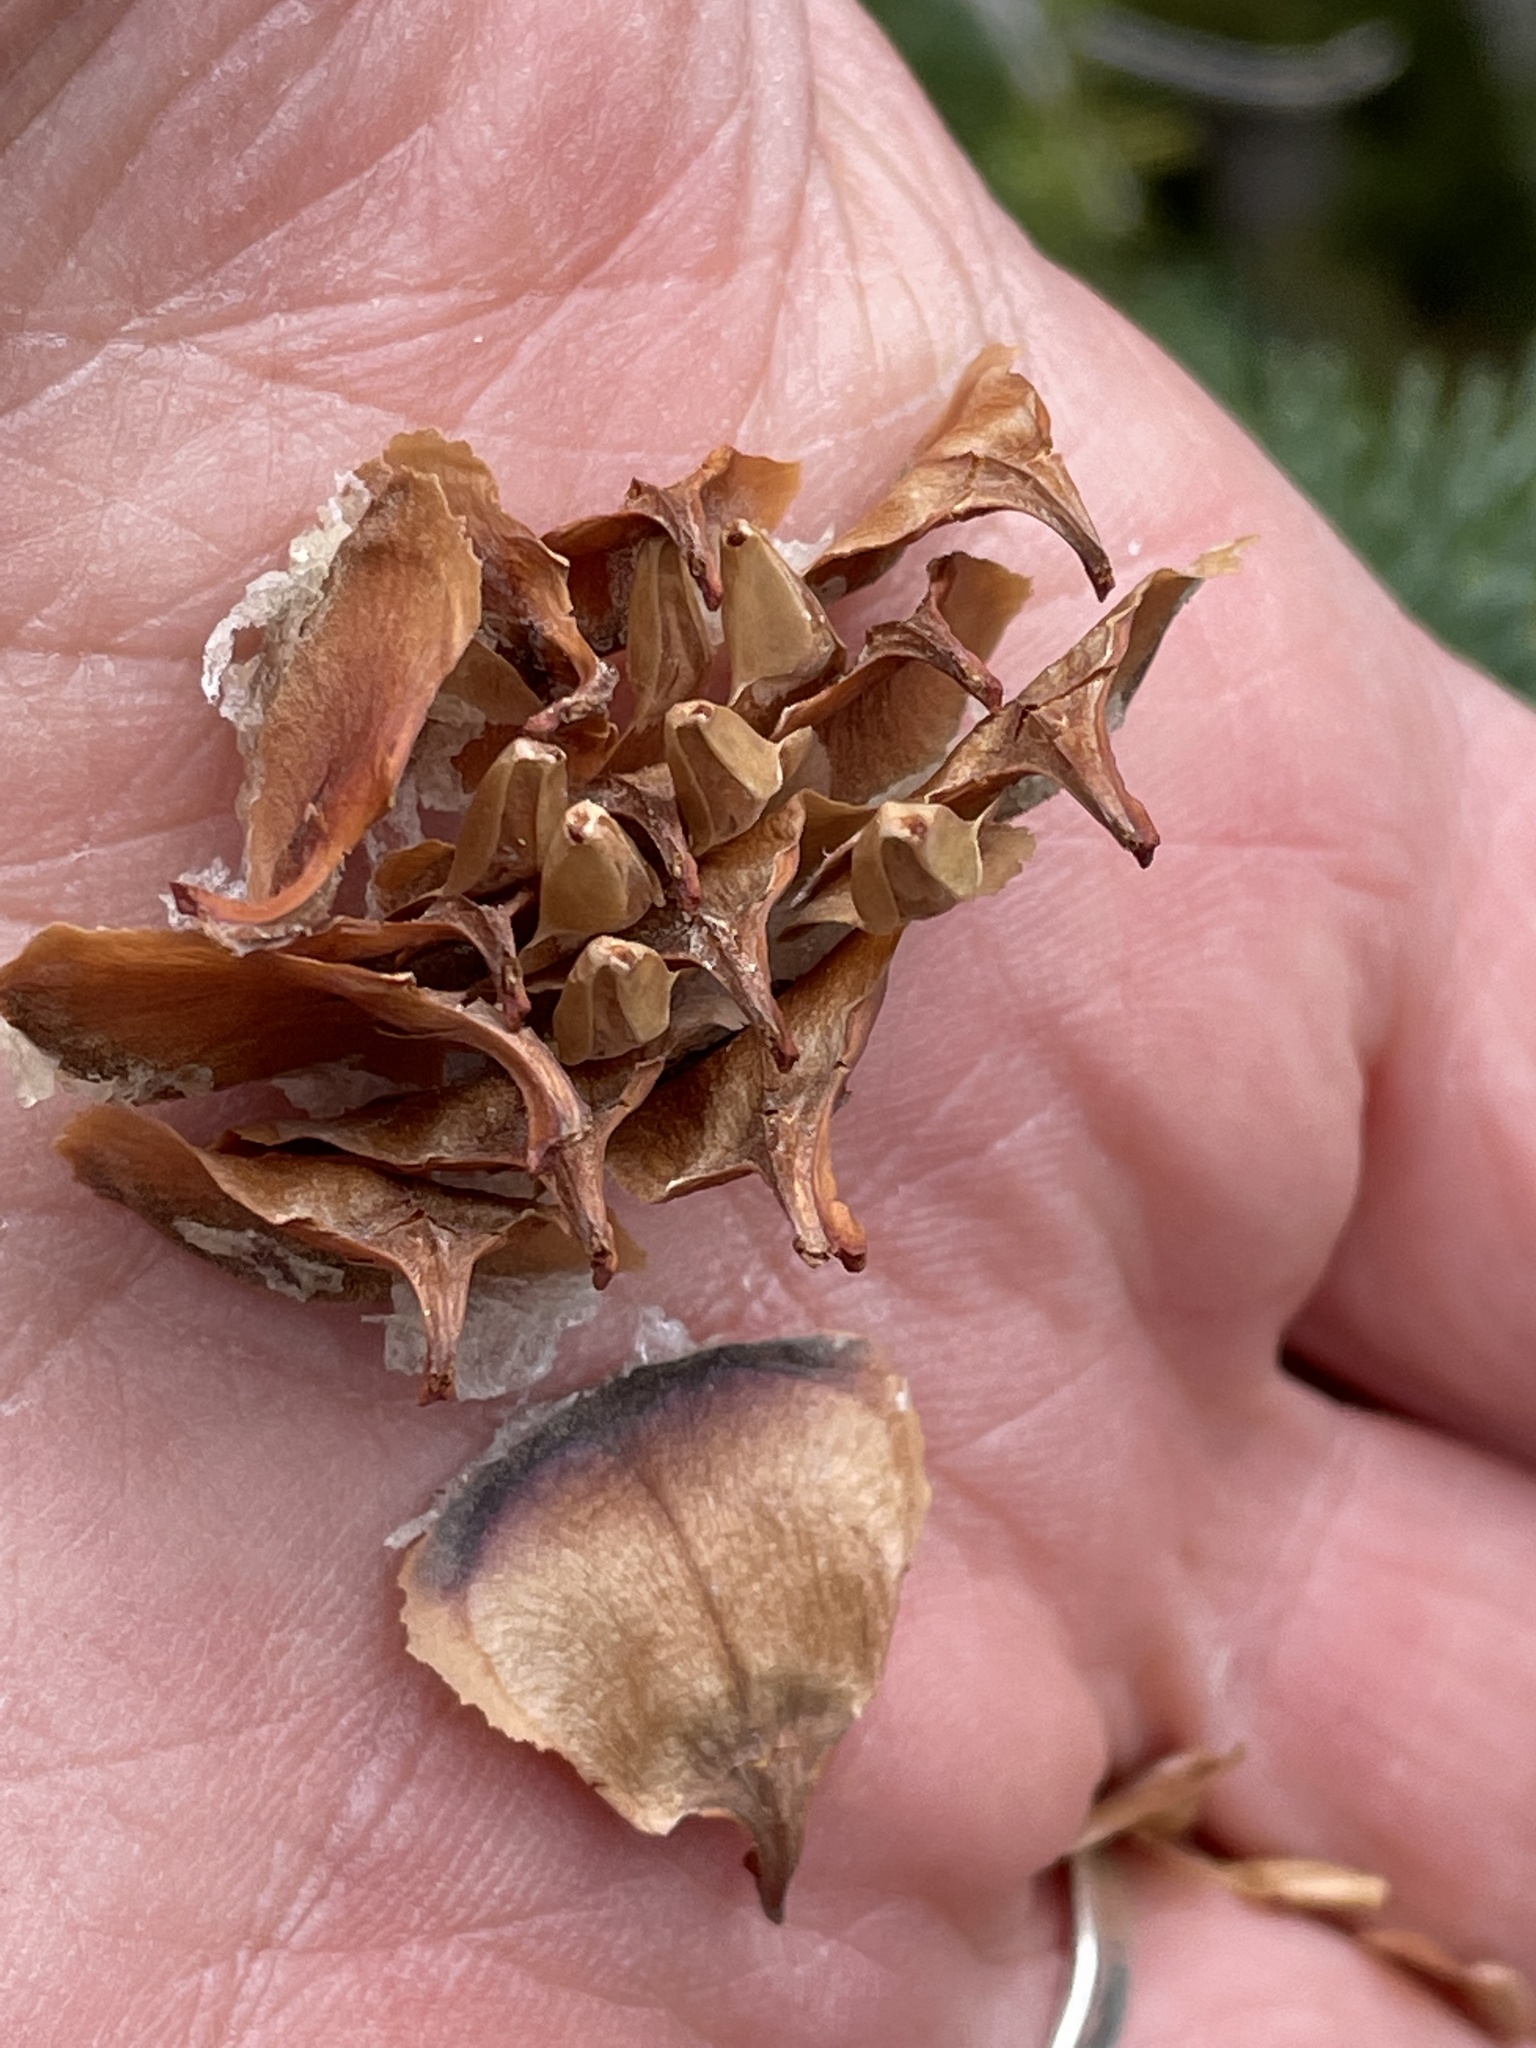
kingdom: Plantae
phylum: Tracheophyta
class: Pinopsida
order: Pinales
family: Pinaceae
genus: Abies
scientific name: Abies lasiocarpa
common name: Subalpine fir
